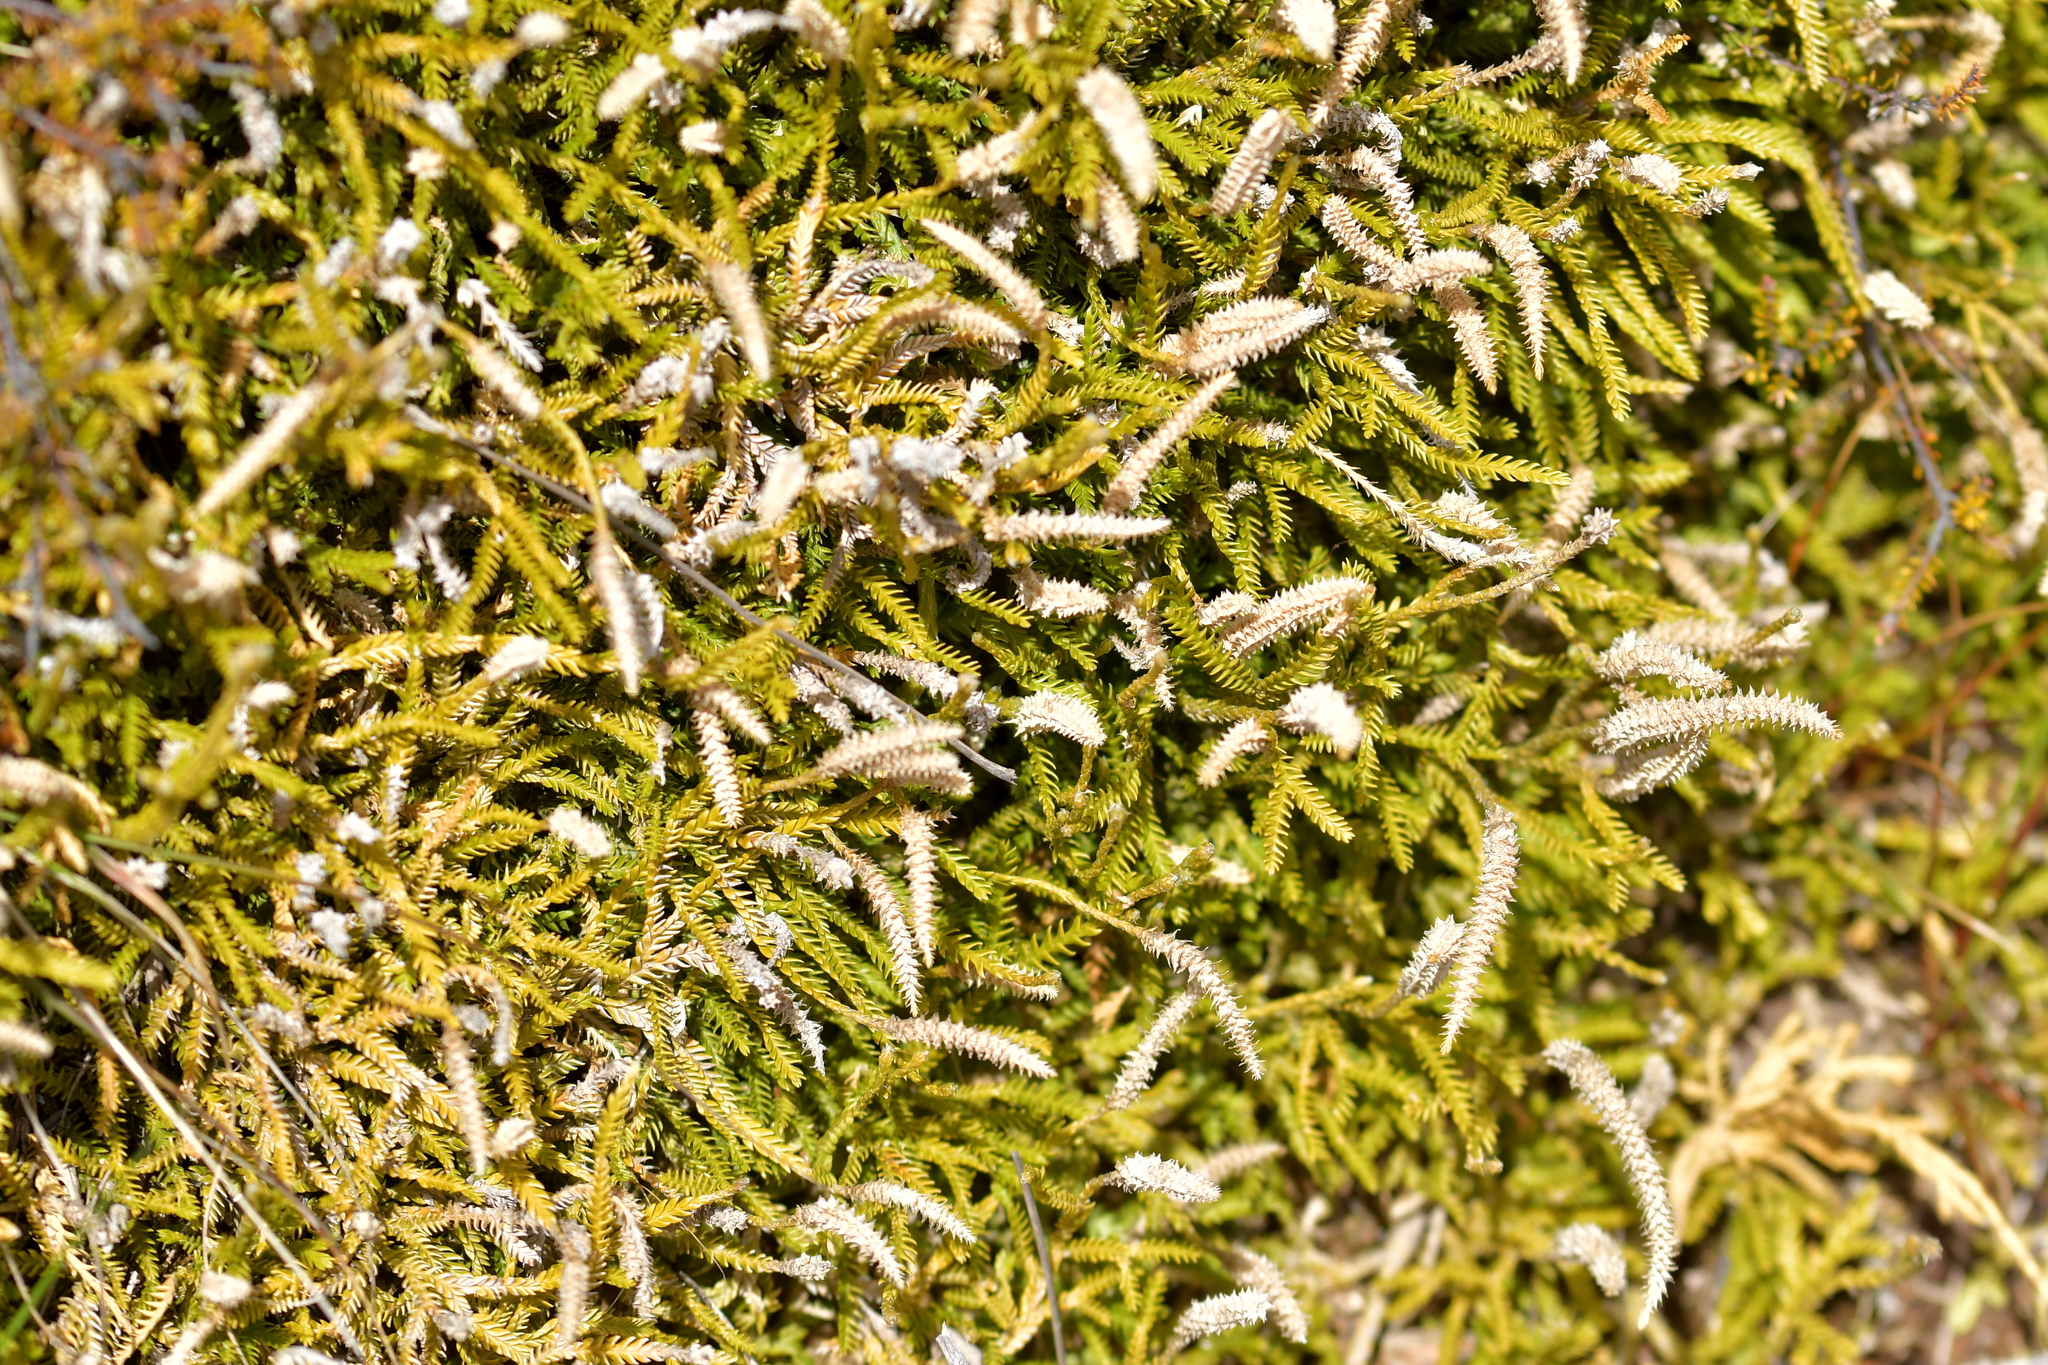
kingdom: Plantae
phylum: Tracheophyta
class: Lycopodiopsida
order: Lycopodiales
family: Lycopodiaceae
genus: Diphasium
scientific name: Diphasium scariosum
